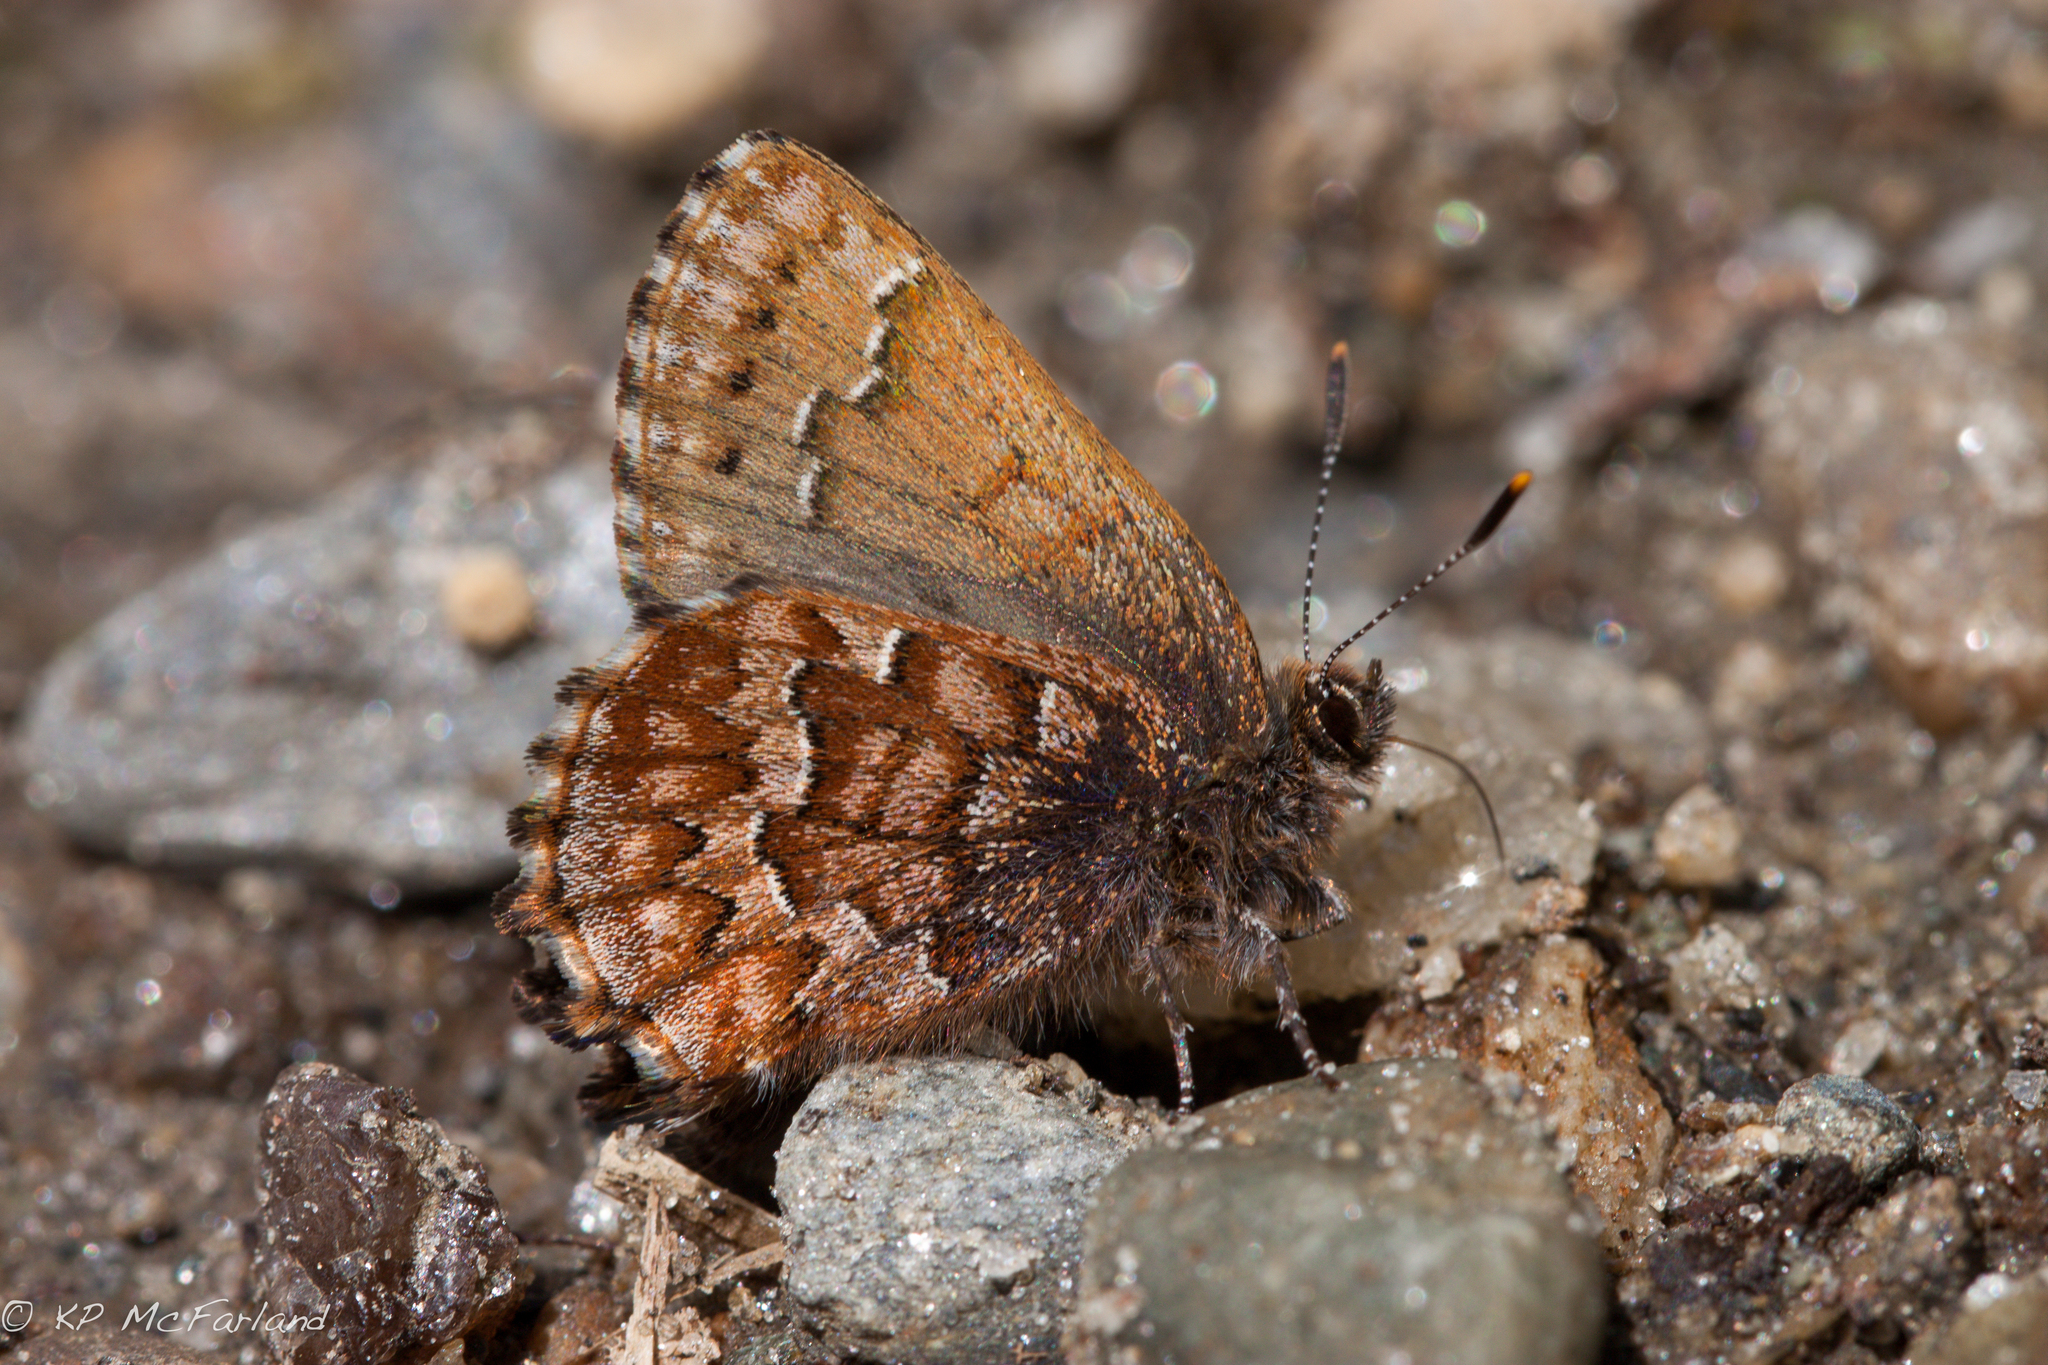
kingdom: Animalia
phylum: Arthropoda
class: Insecta
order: Lepidoptera
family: Lycaenidae
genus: Incisalia
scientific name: Incisalia niphon
